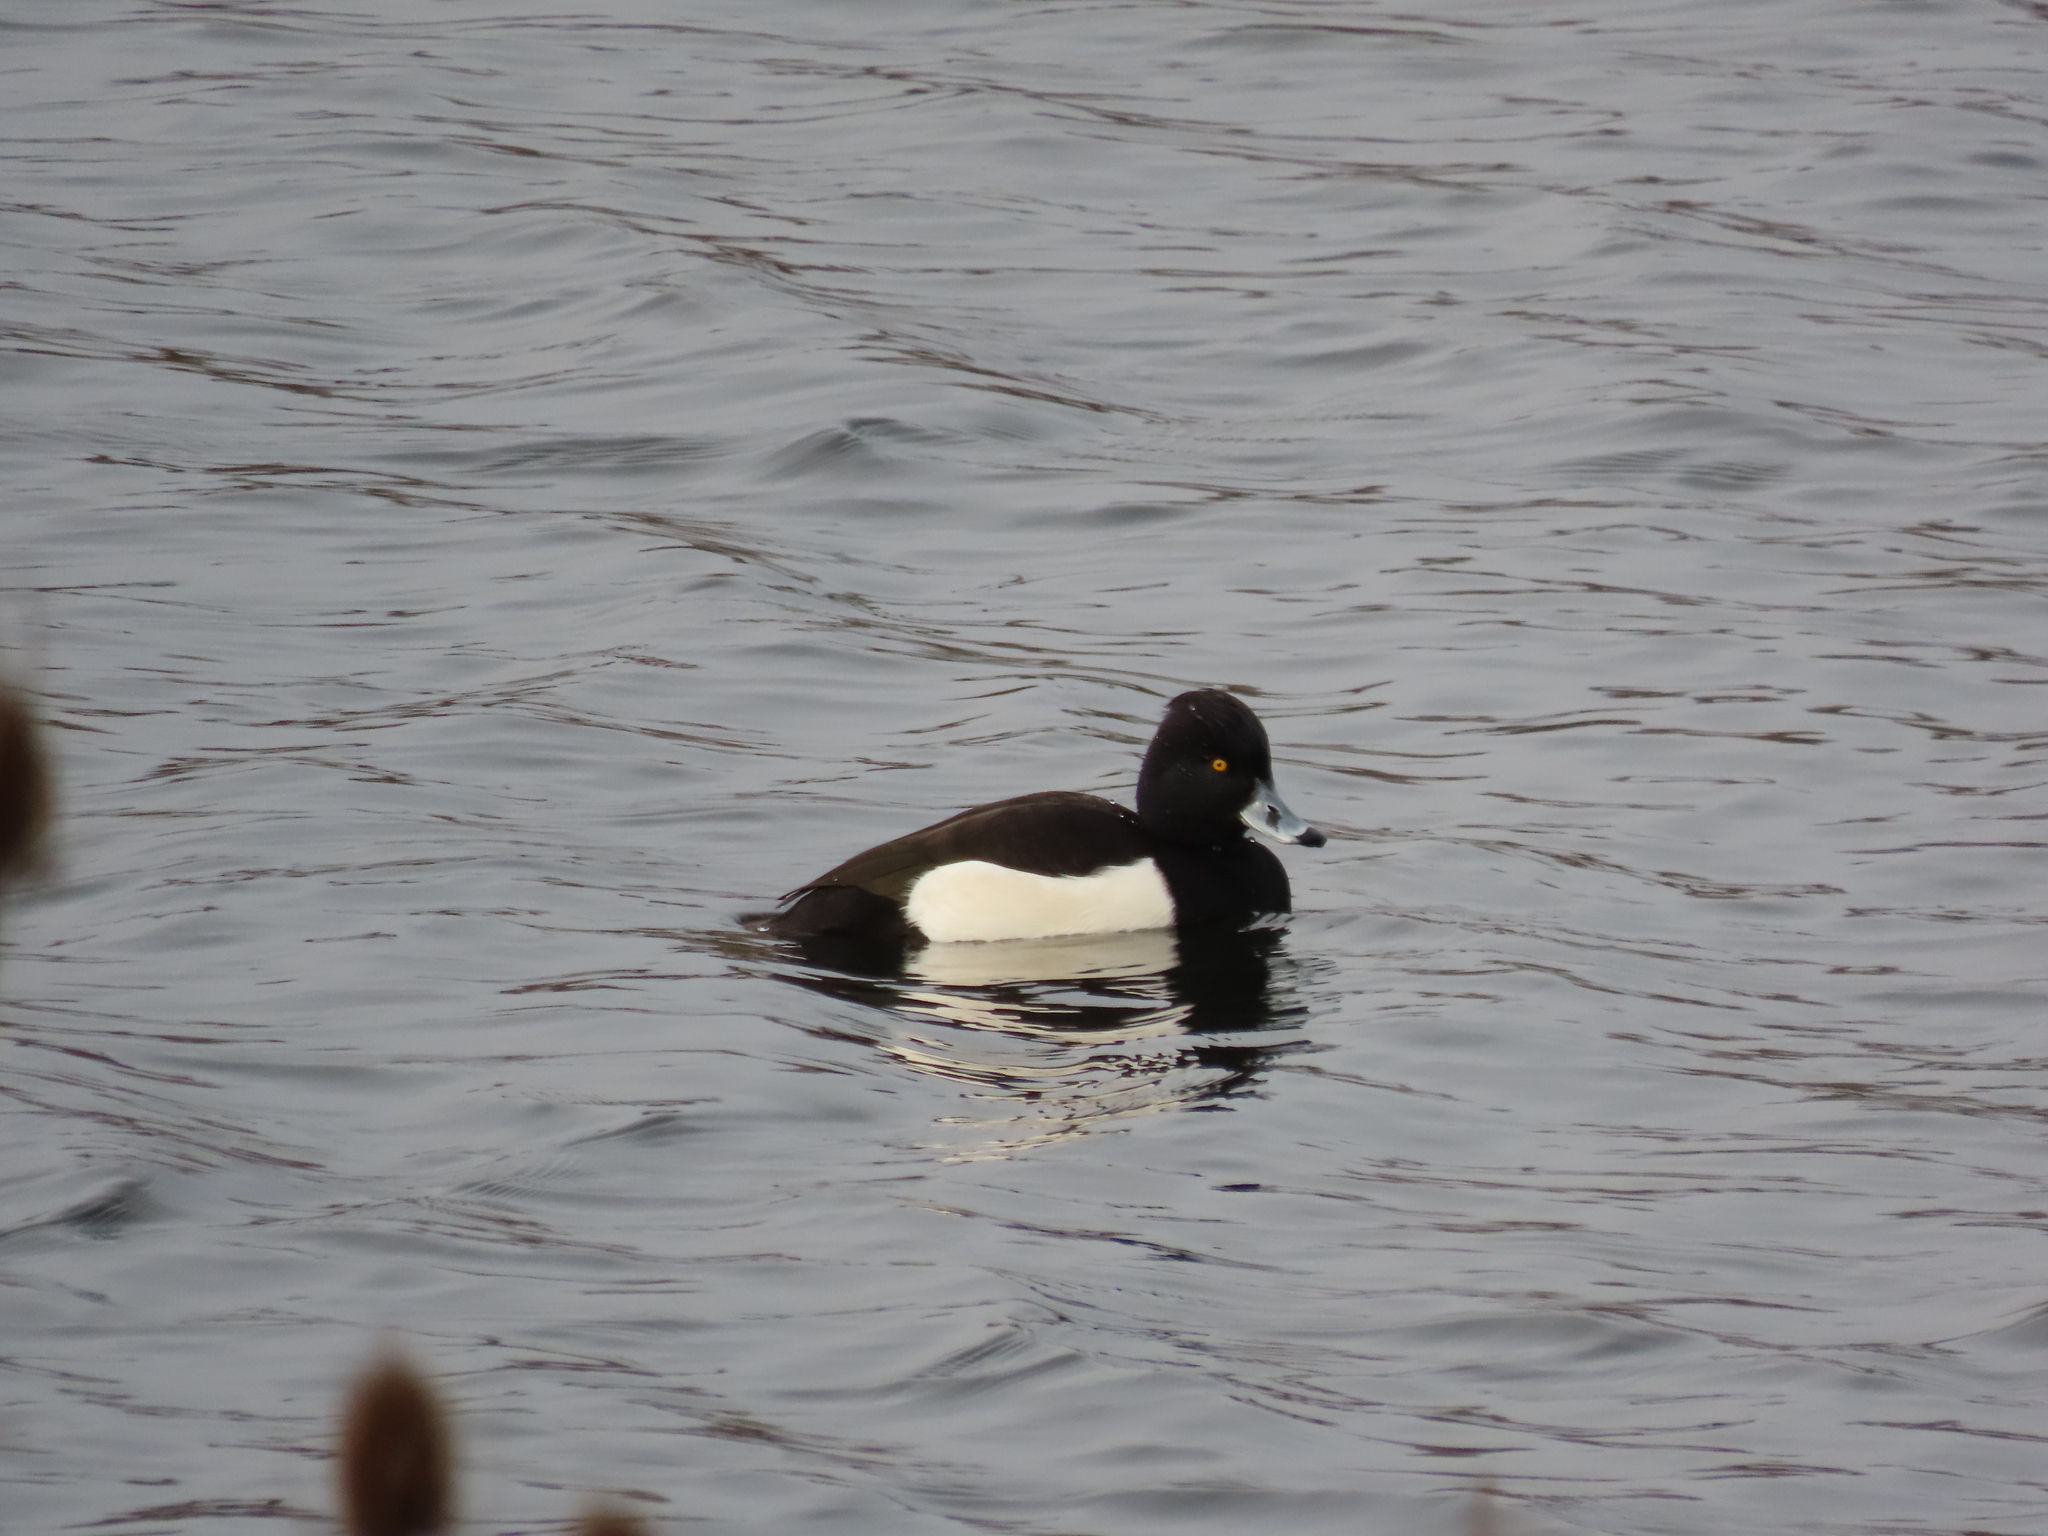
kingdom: Animalia
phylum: Chordata
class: Aves
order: Anseriformes
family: Anatidae
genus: Aythya
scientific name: Aythya fuligula
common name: Tufted duck
